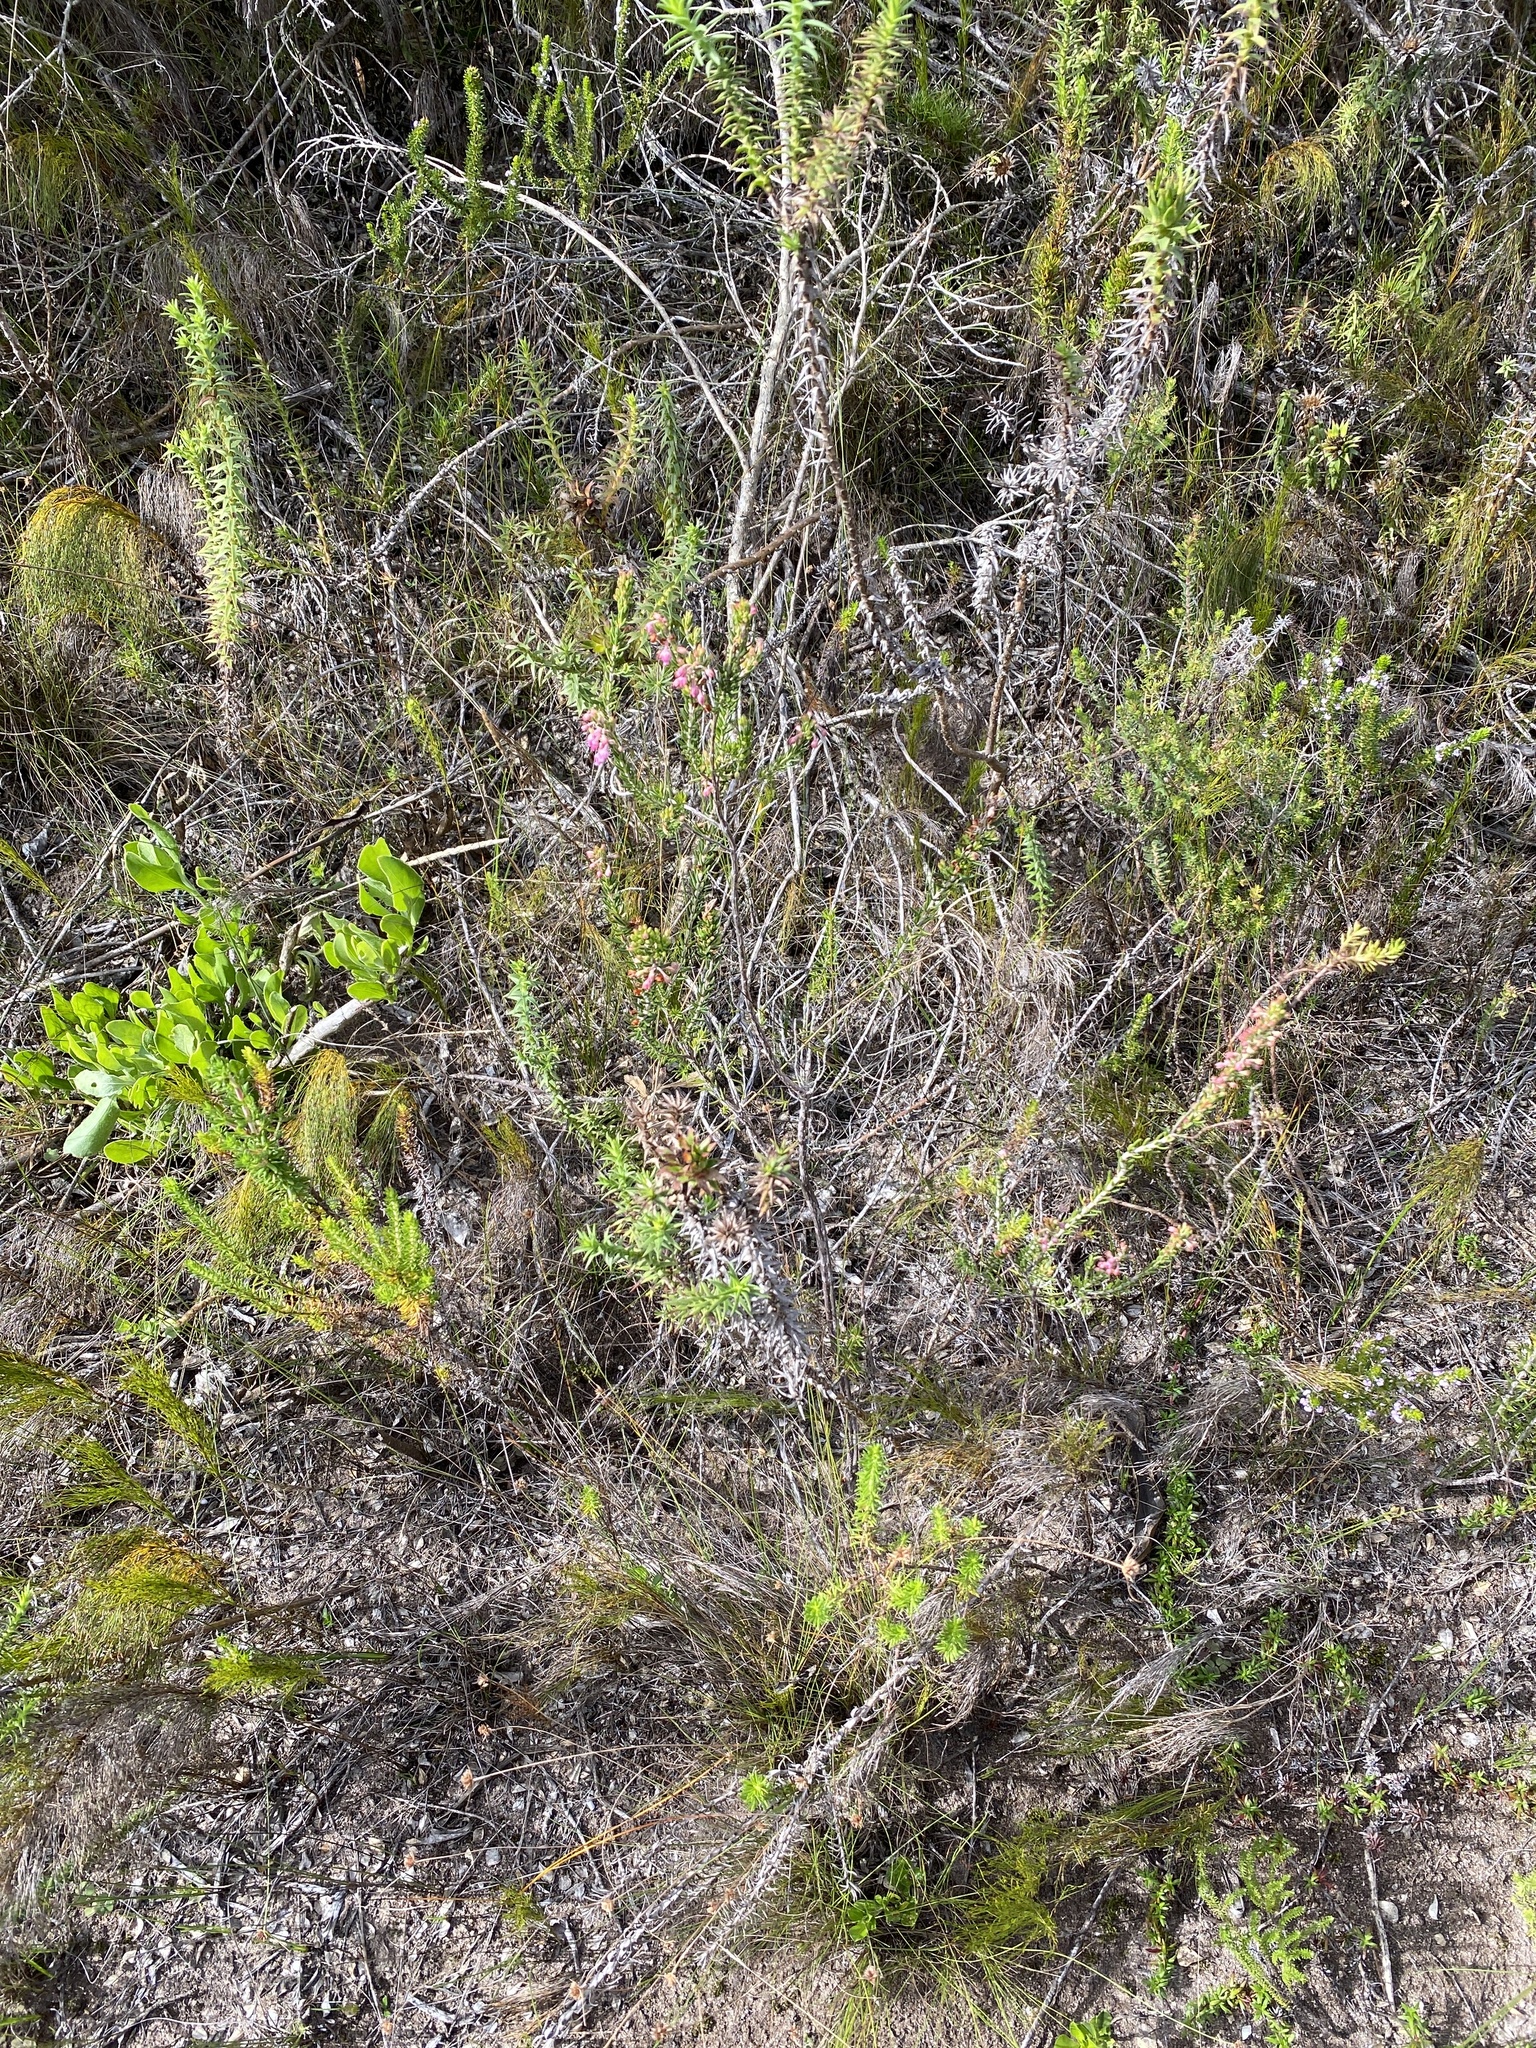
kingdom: Plantae
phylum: Tracheophyta
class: Magnoliopsida
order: Ericales
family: Ericaceae
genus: Erica
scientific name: Erica irregularis
